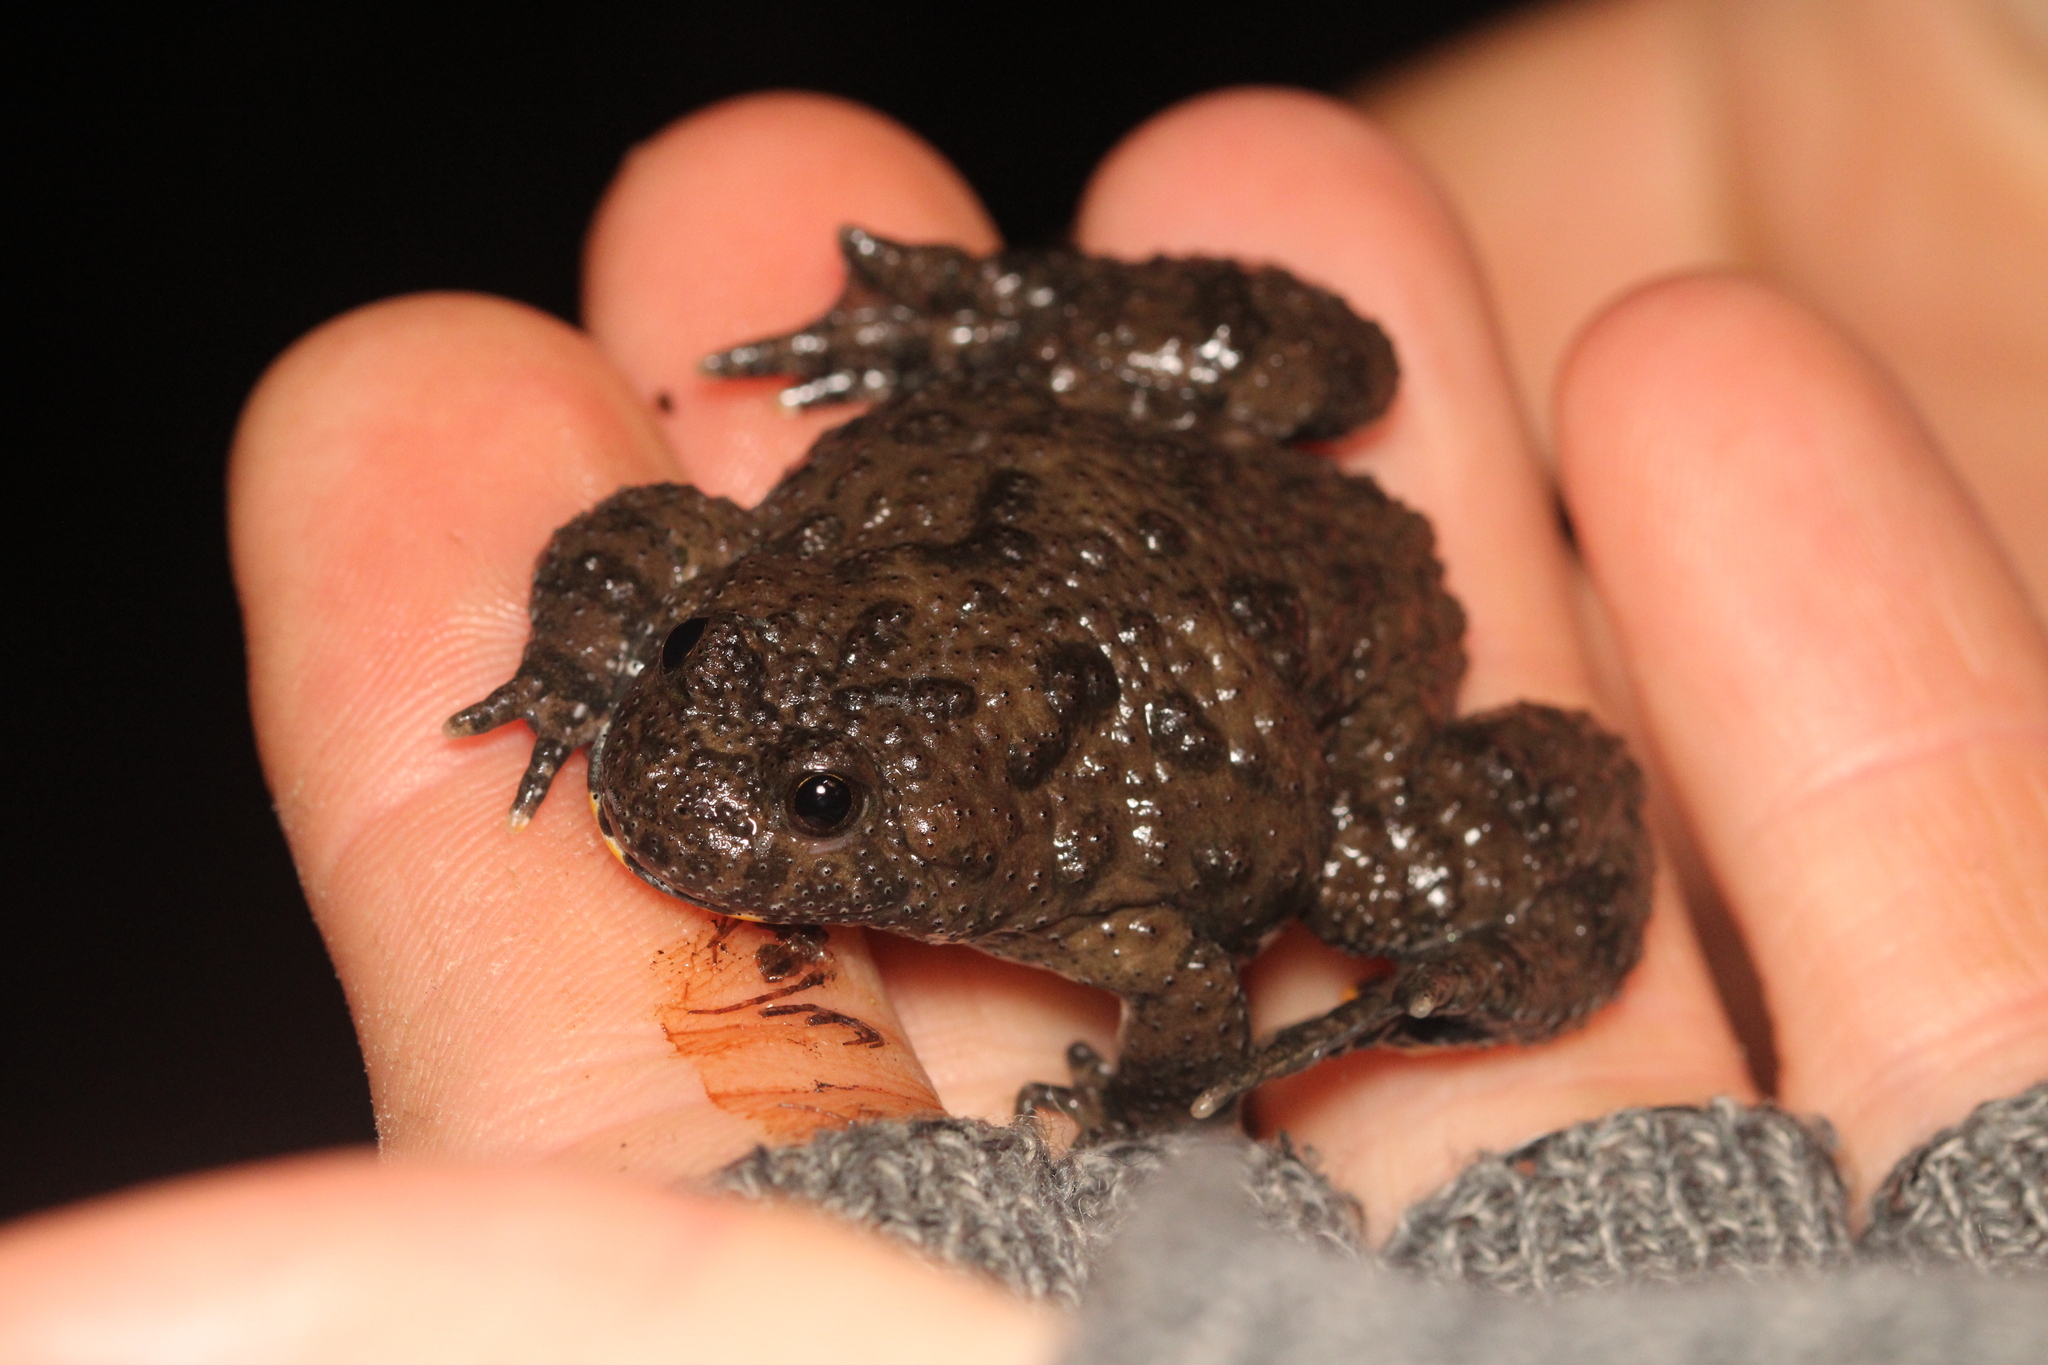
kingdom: Animalia
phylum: Chordata
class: Amphibia
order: Anura
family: Bombinatoridae
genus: Bombina
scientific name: Bombina variegata
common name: Yellow-bellied toad
